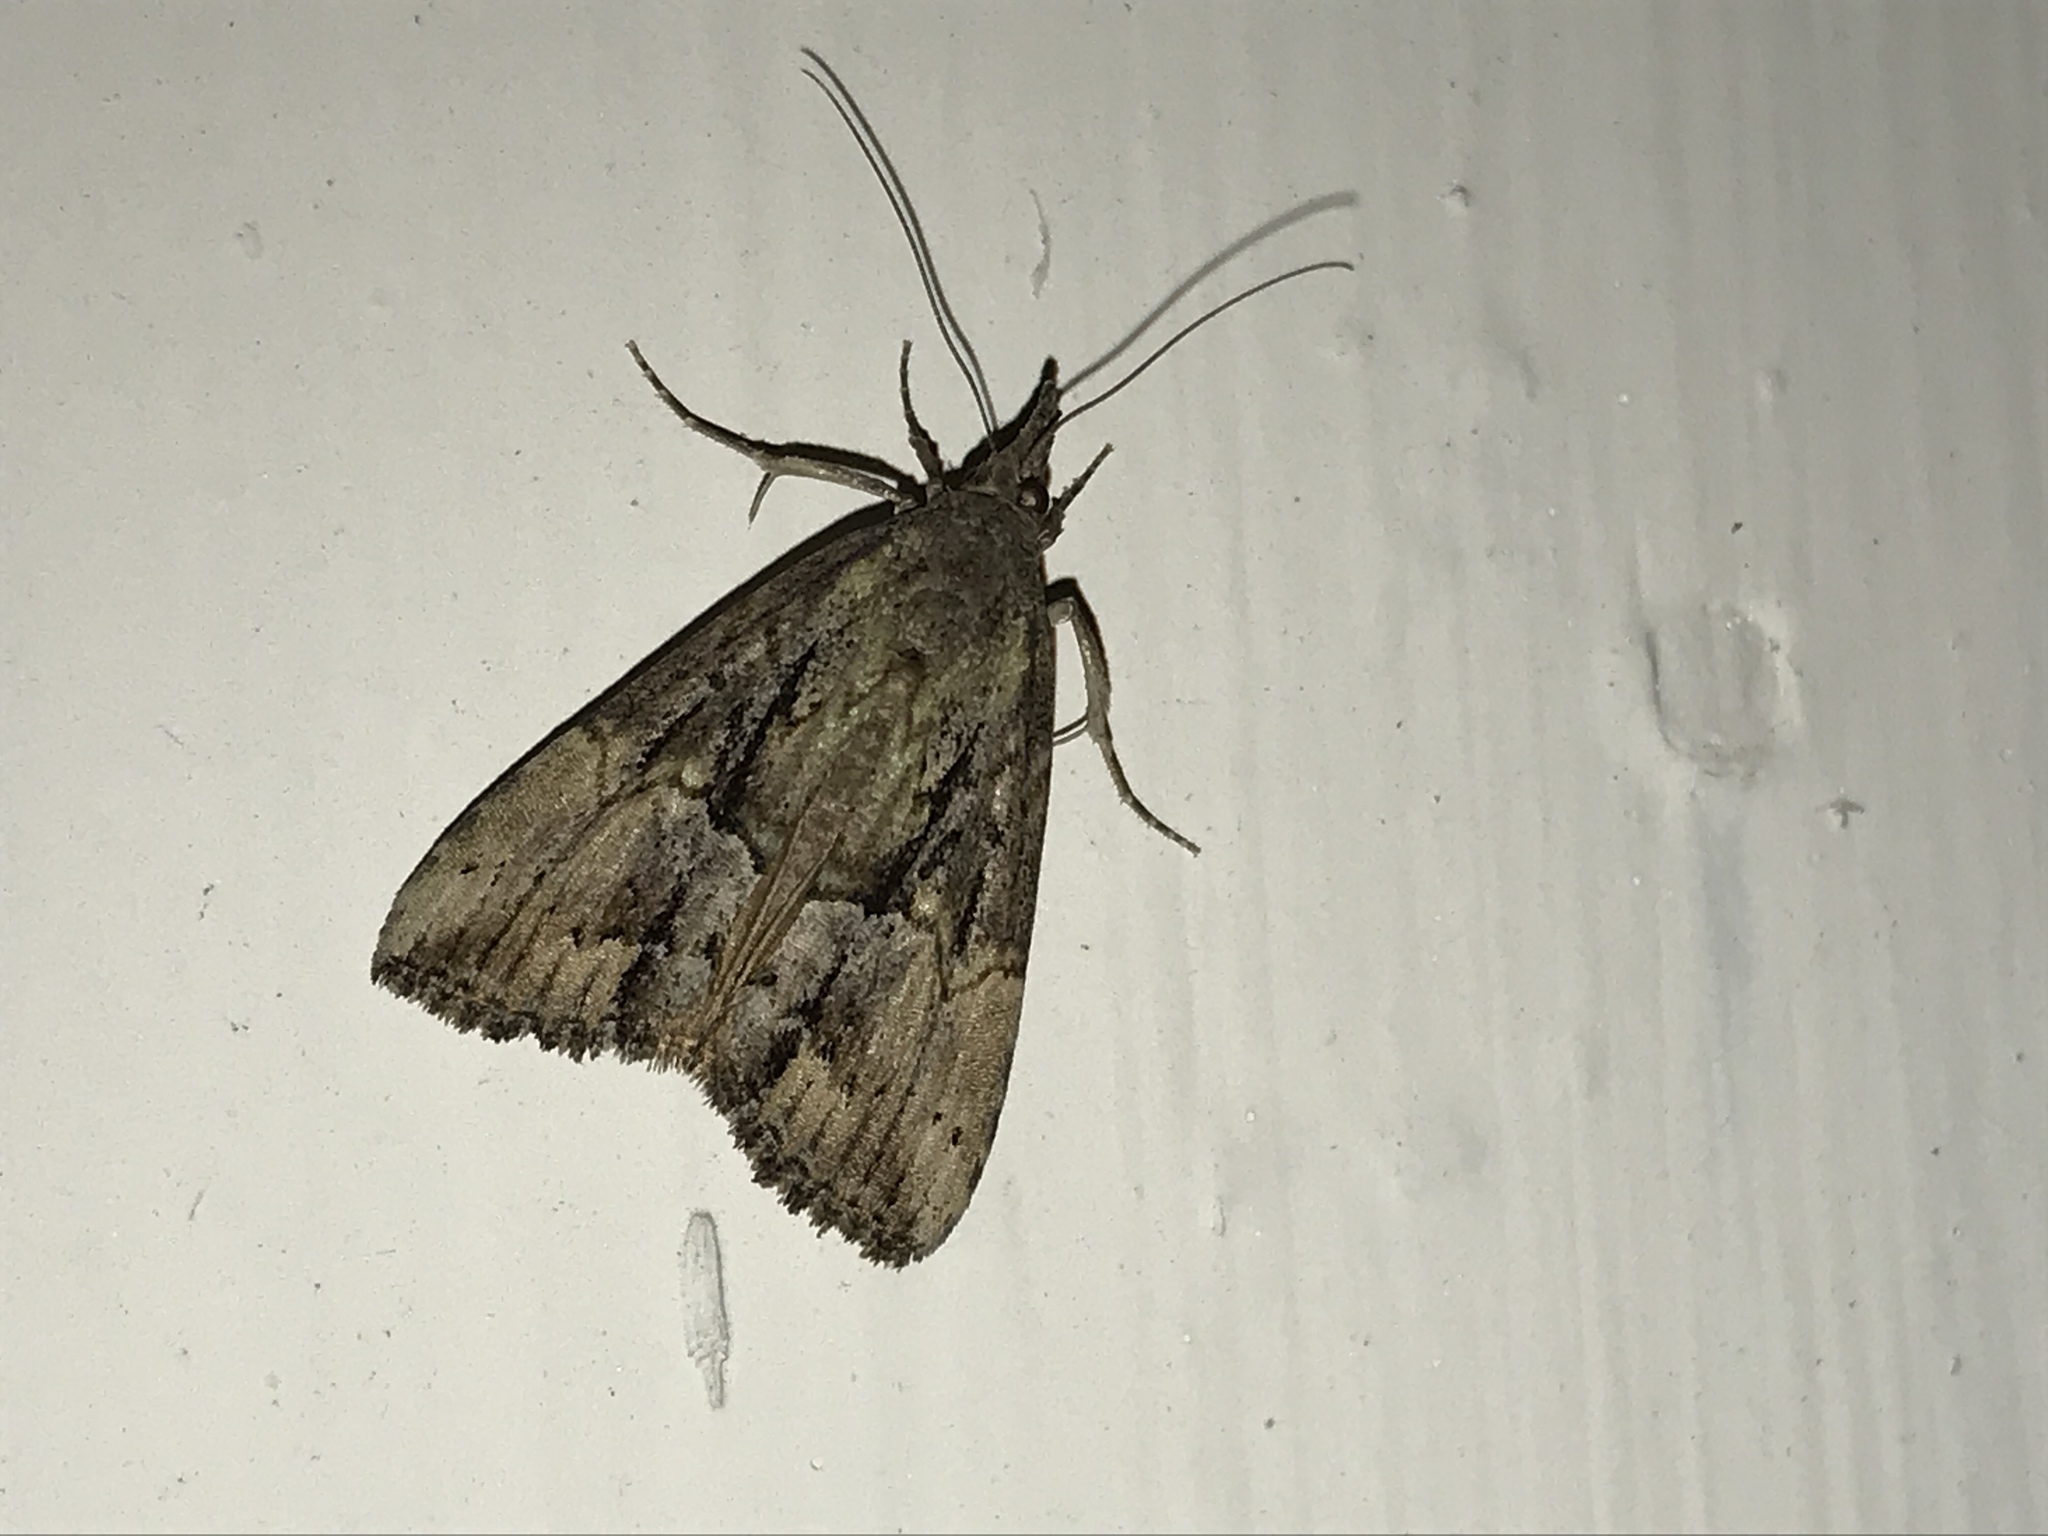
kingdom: Animalia
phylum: Arthropoda
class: Insecta
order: Lepidoptera
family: Erebidae
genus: Hypena
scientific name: Hypena scabra
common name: Green cloverworm
